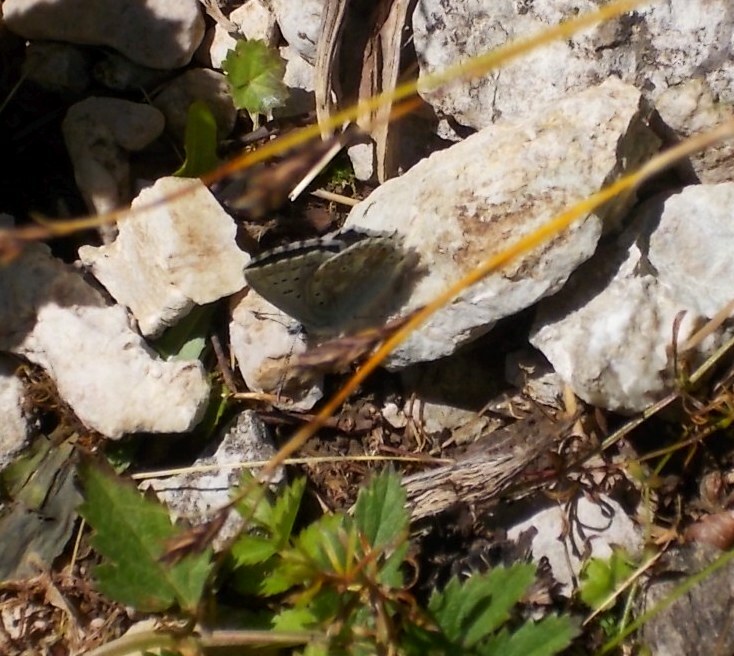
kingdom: Animalia
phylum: Arthropoda
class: Insecta
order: Lepidoptera
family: Lycaenidae
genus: Lysandra
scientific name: Lysandra coridon
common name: Chalkhill blue
